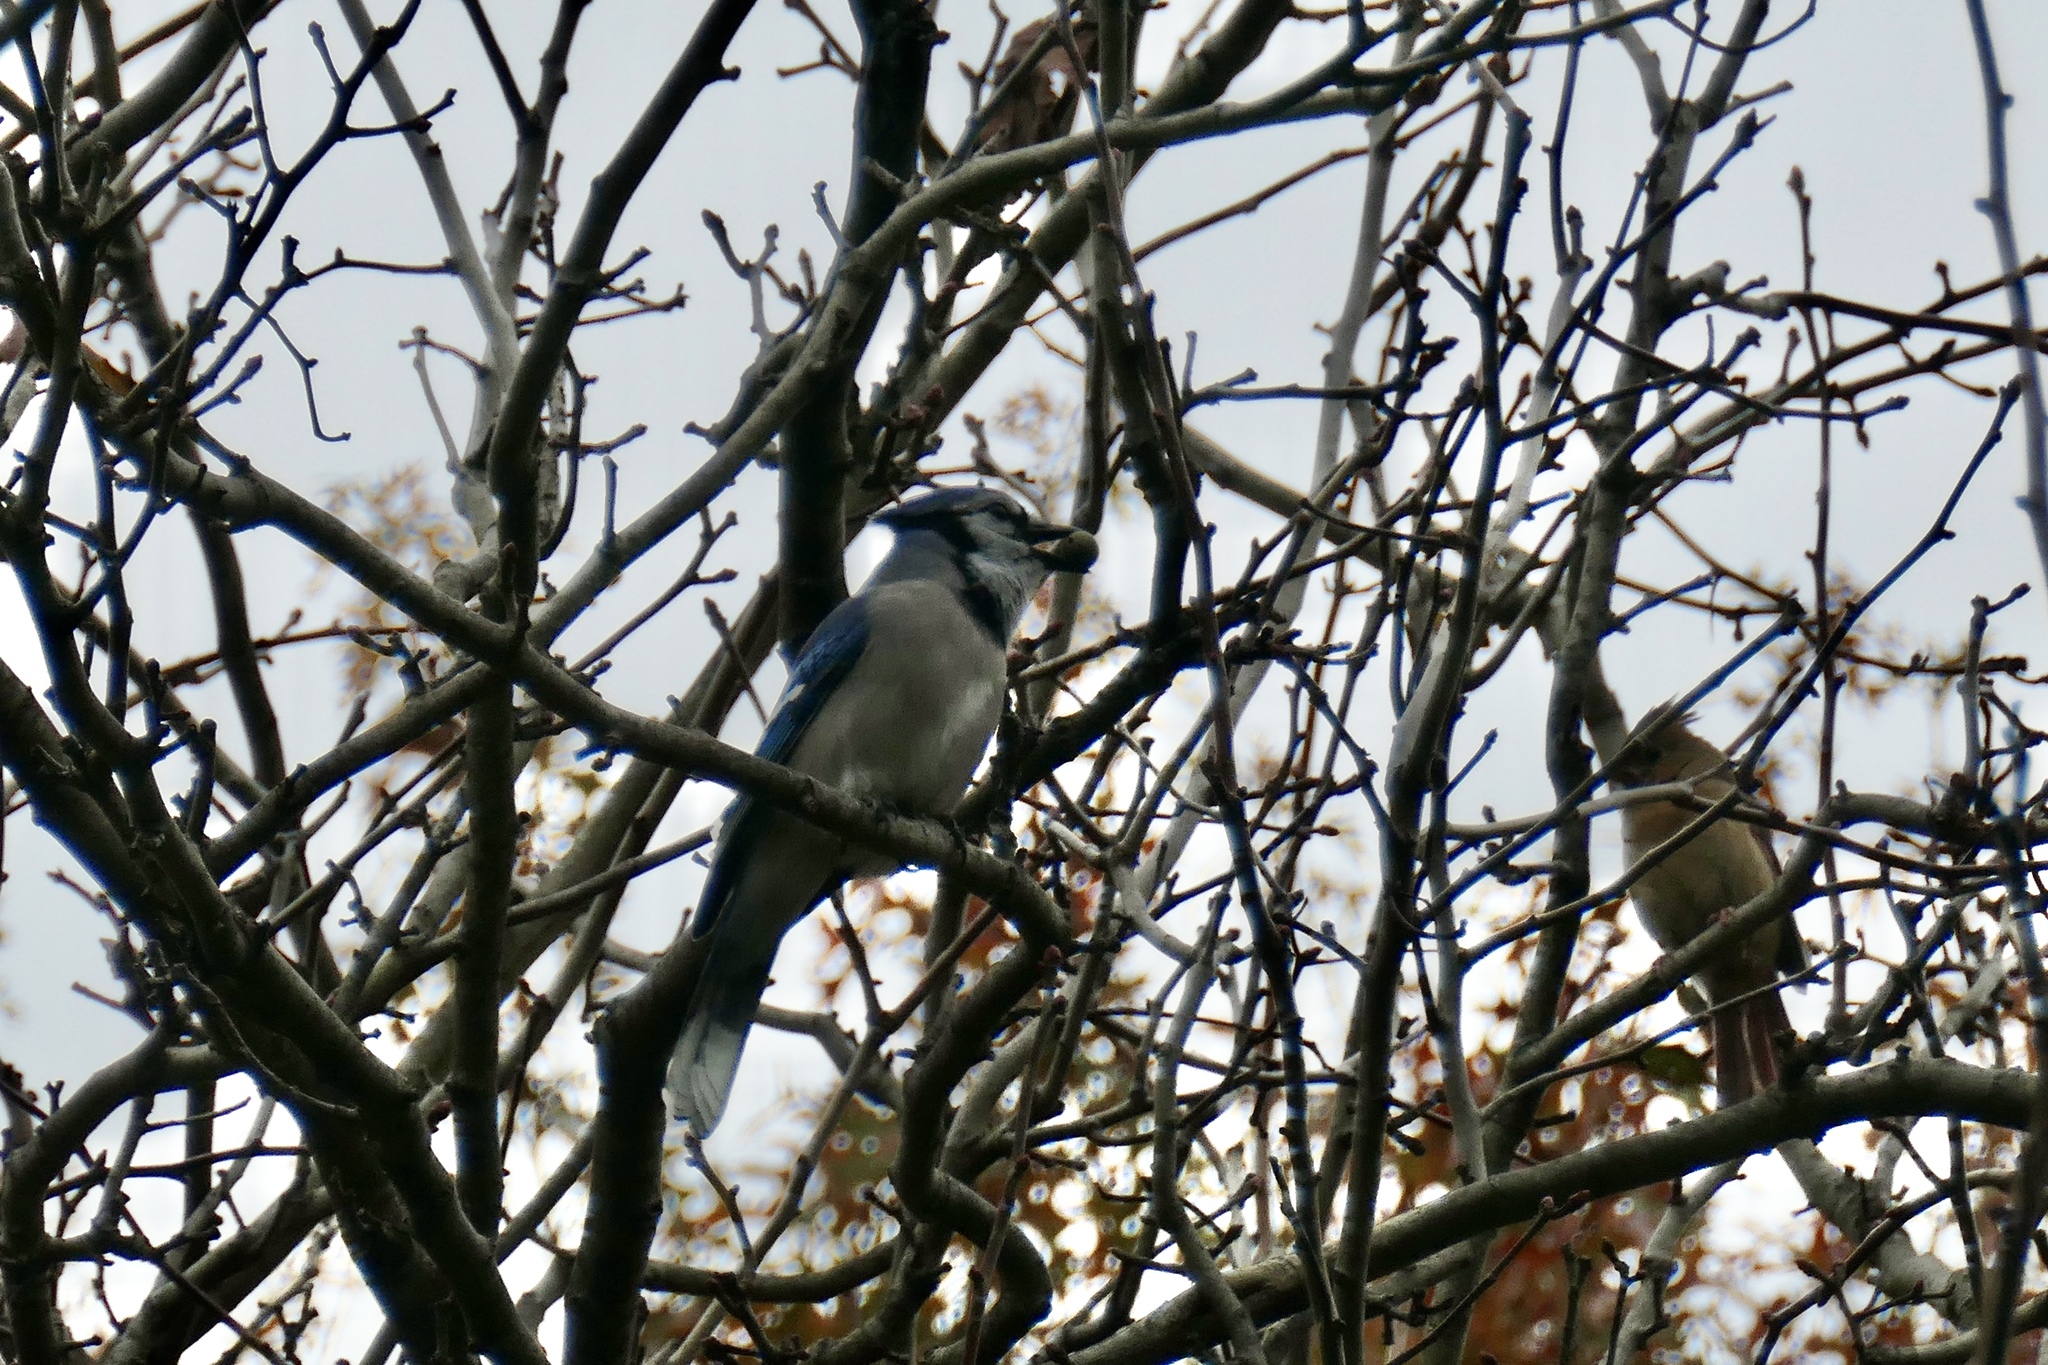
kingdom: Animalia
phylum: Chordata
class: Aves
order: Passeriformes
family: Corvidae
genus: Cyanocitta
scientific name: Cyanocitta cristata
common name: Blue jay
